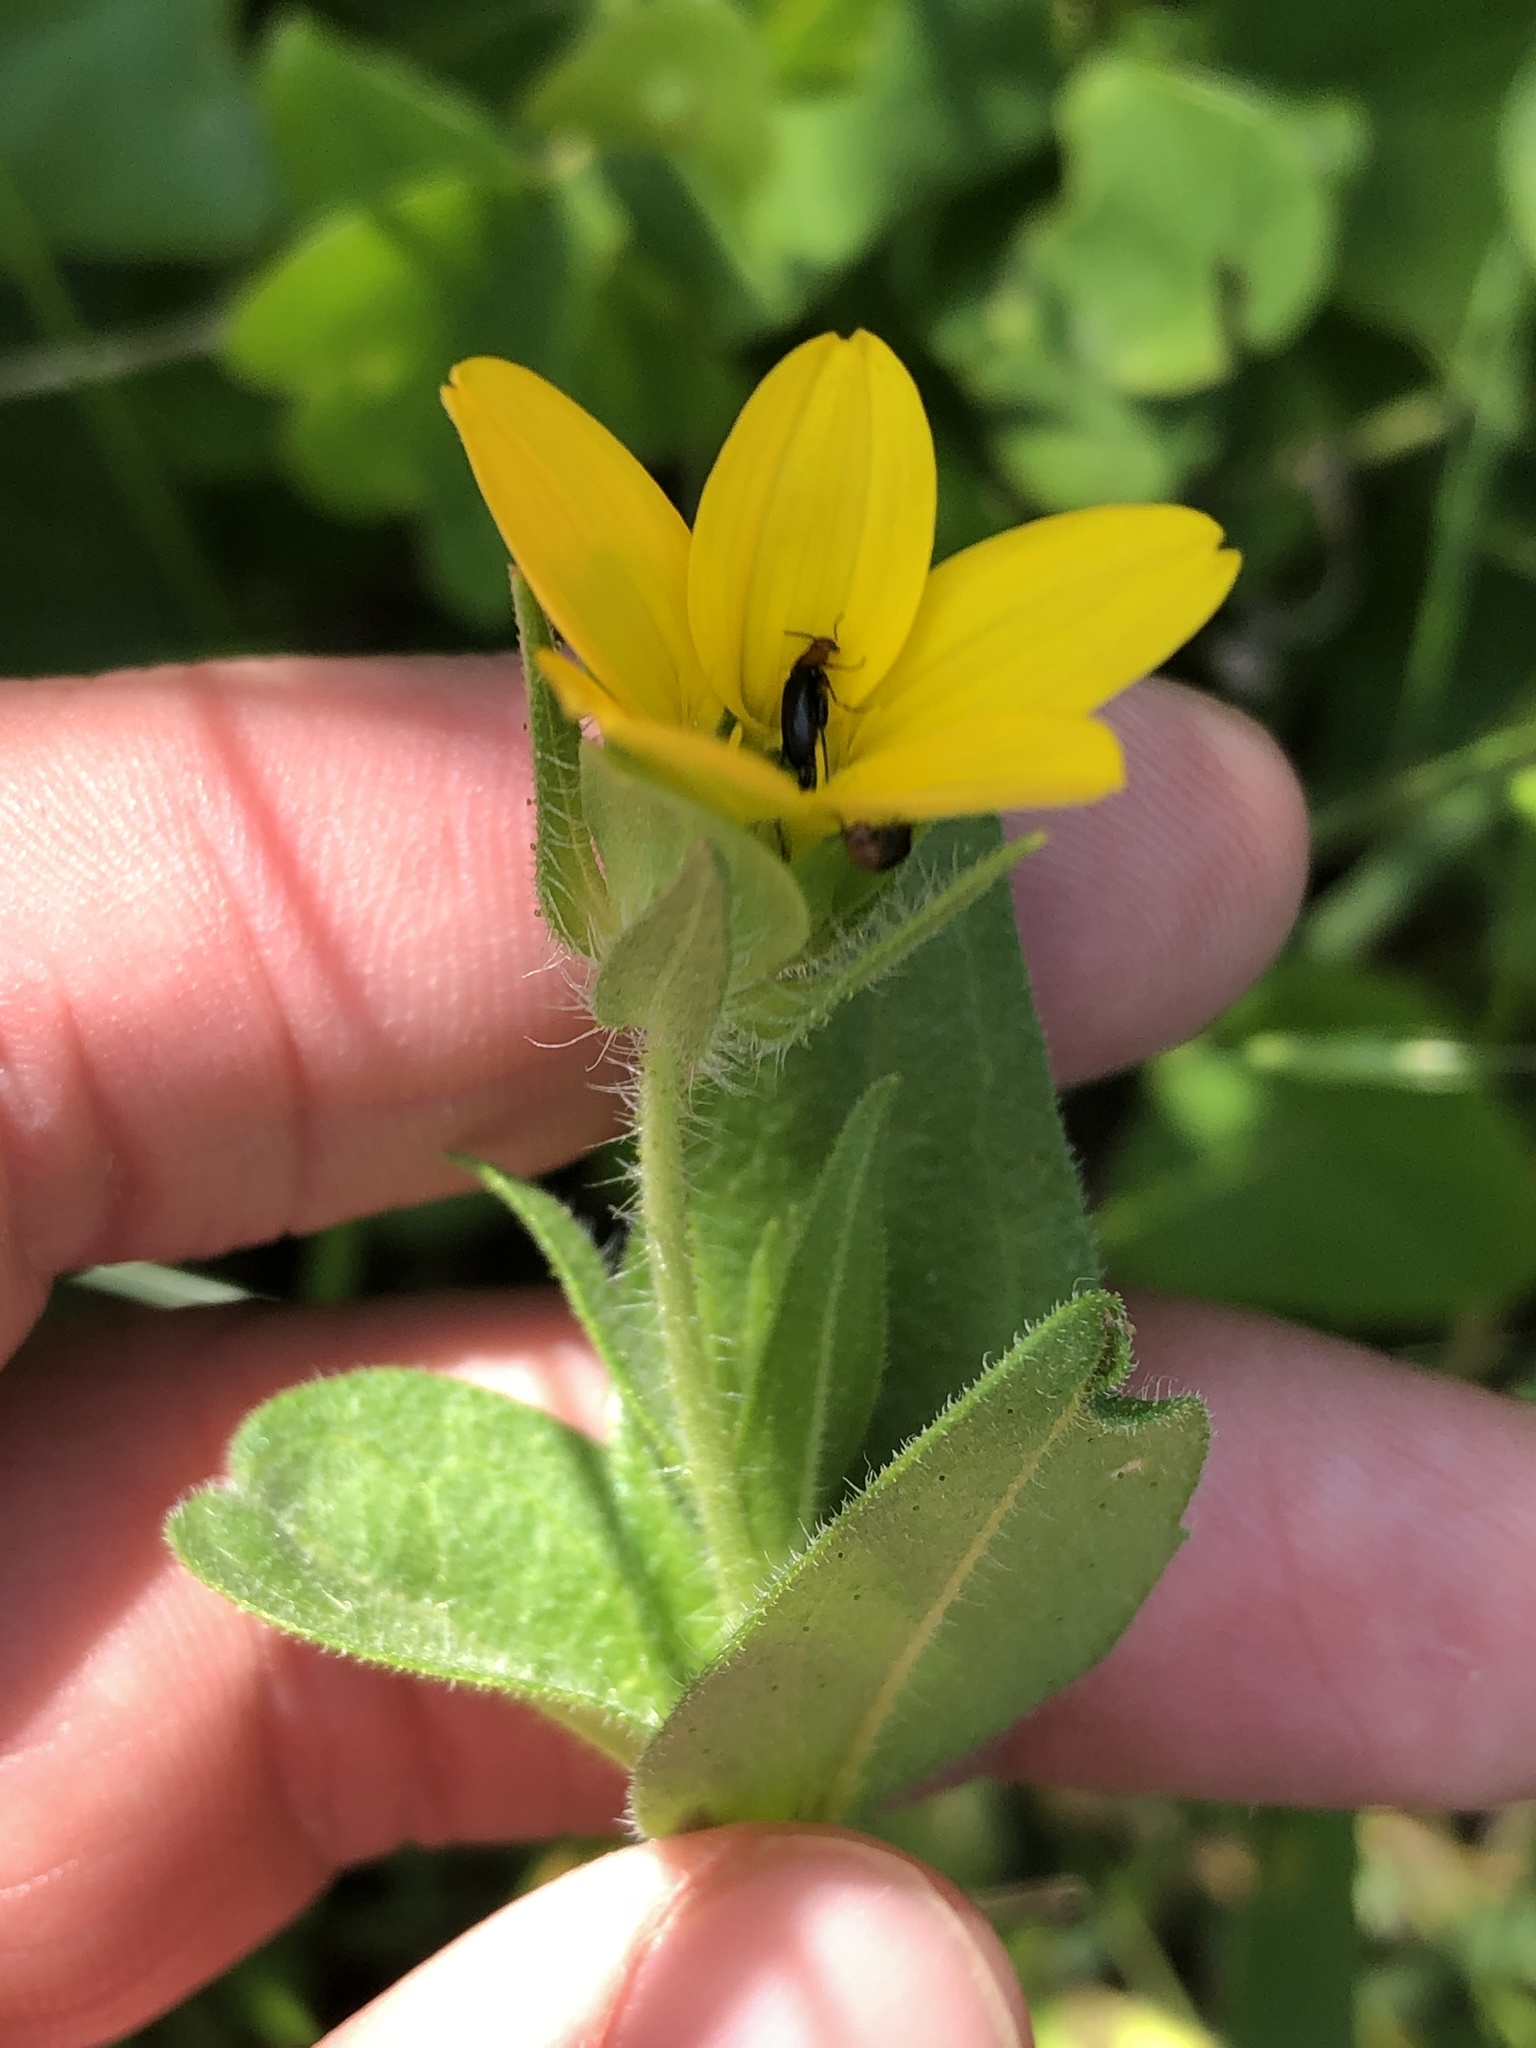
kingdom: Plantae
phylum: Tracheophyta
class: Magnoliopsida
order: Asterales
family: Asteraceae
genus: Lindheimera
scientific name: Lindheimera texana
